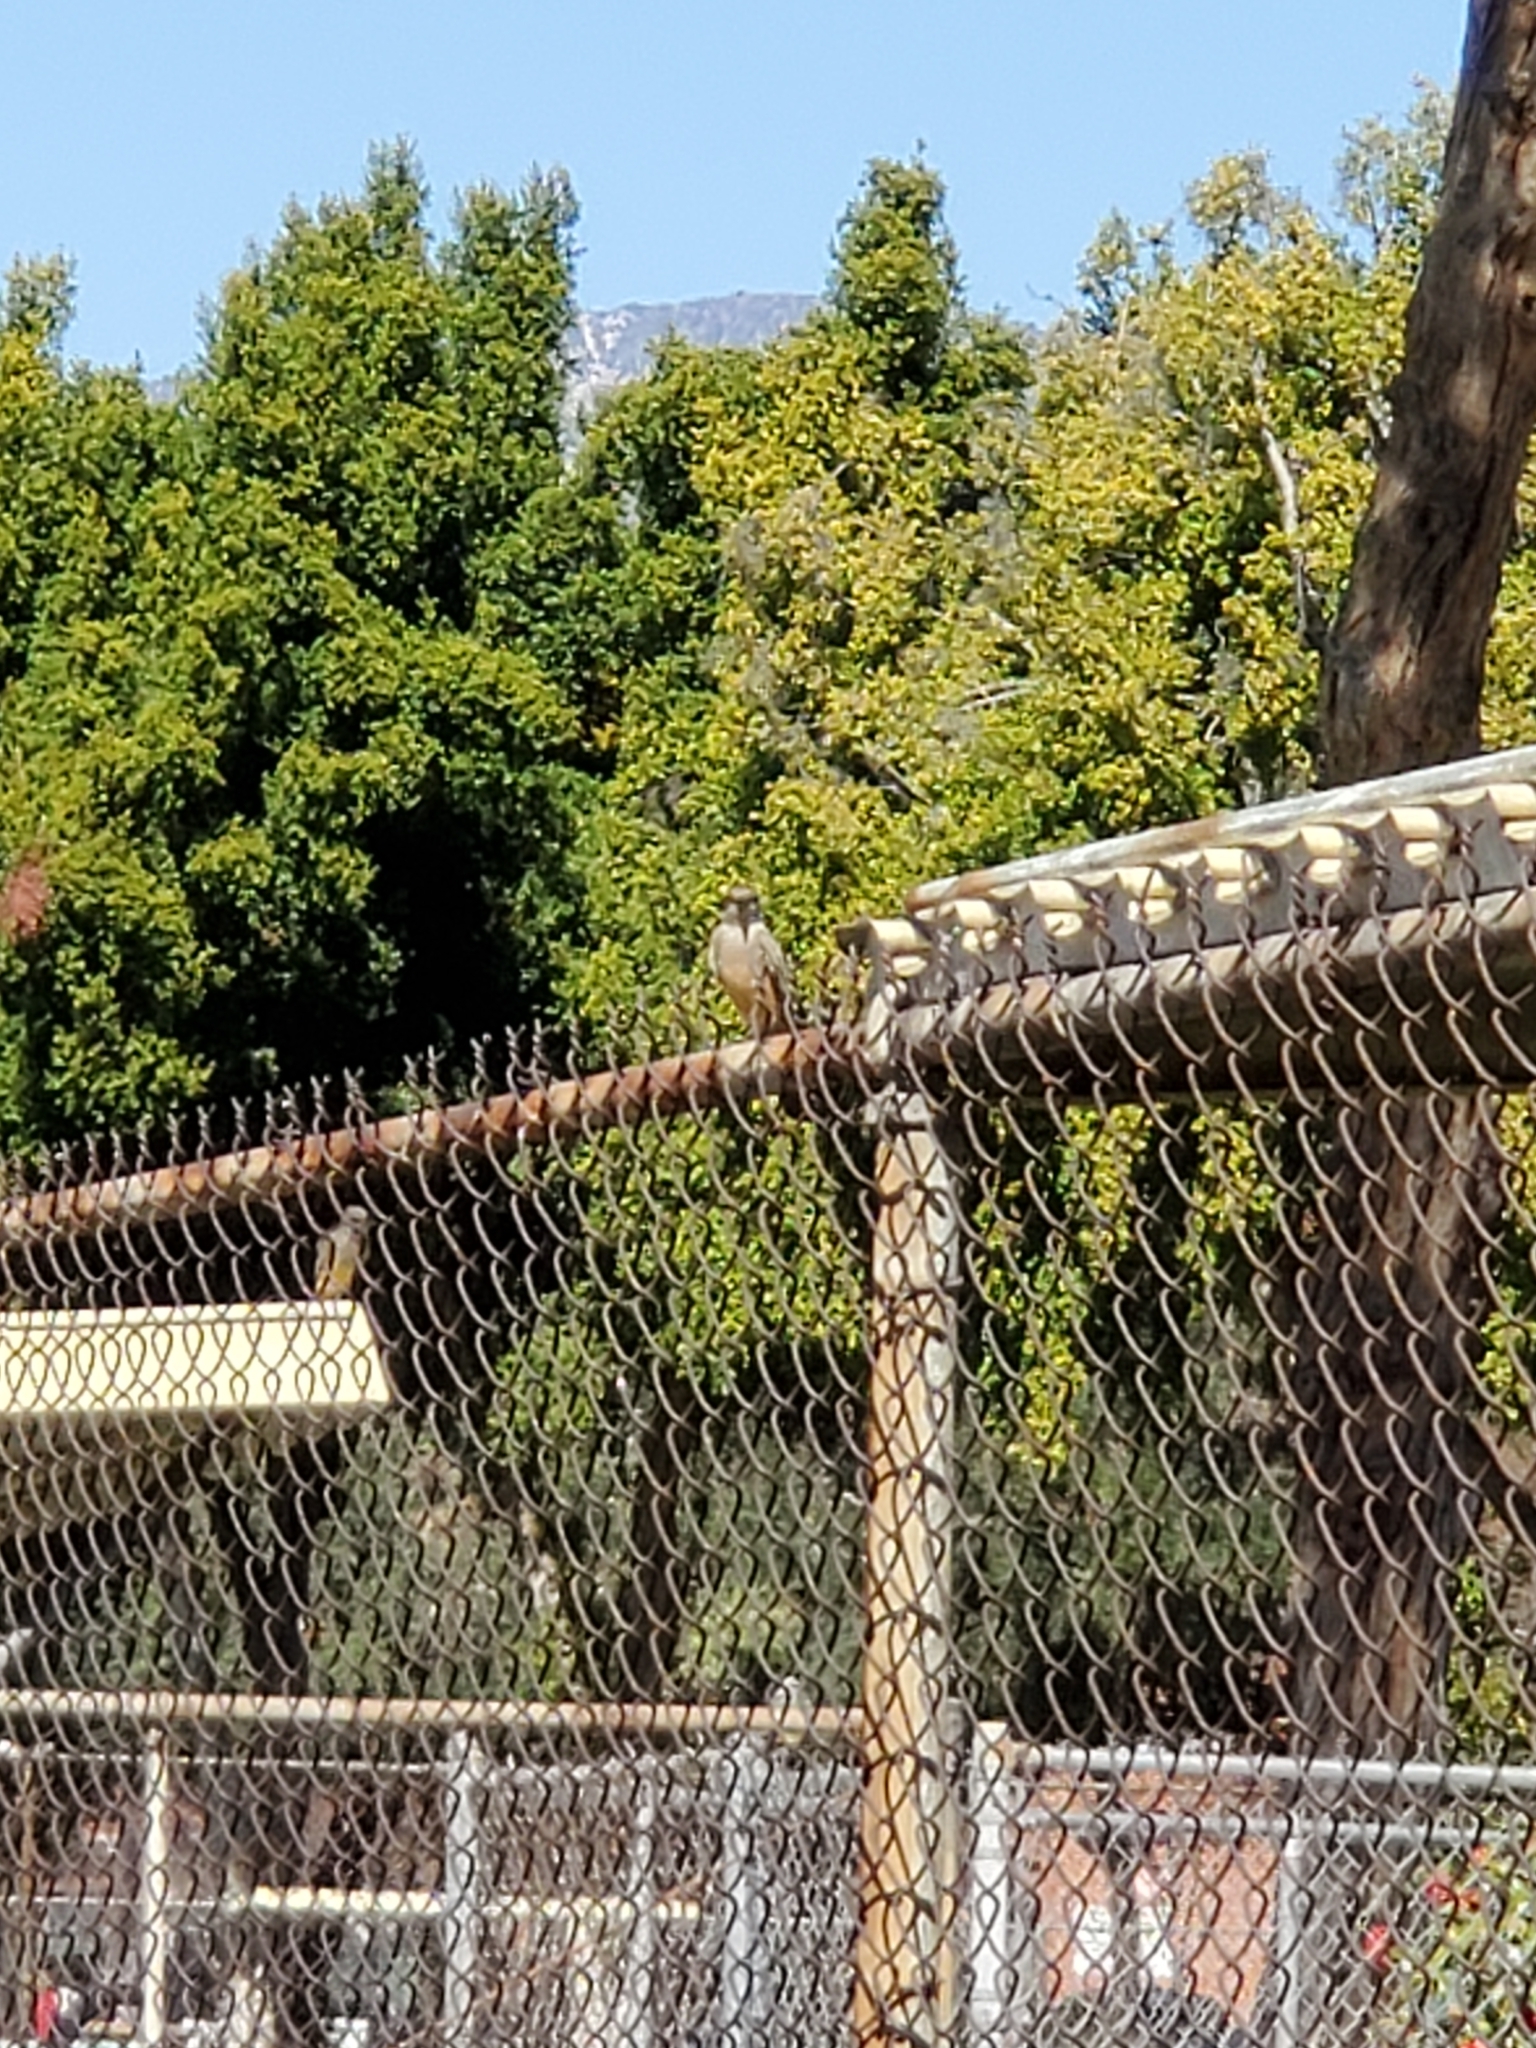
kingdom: Animalia
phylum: Chordata
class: Aves
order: Passeriformes
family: Tyrannidae
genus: Sayornis
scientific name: Sayornis saya
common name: Say's phoebe
